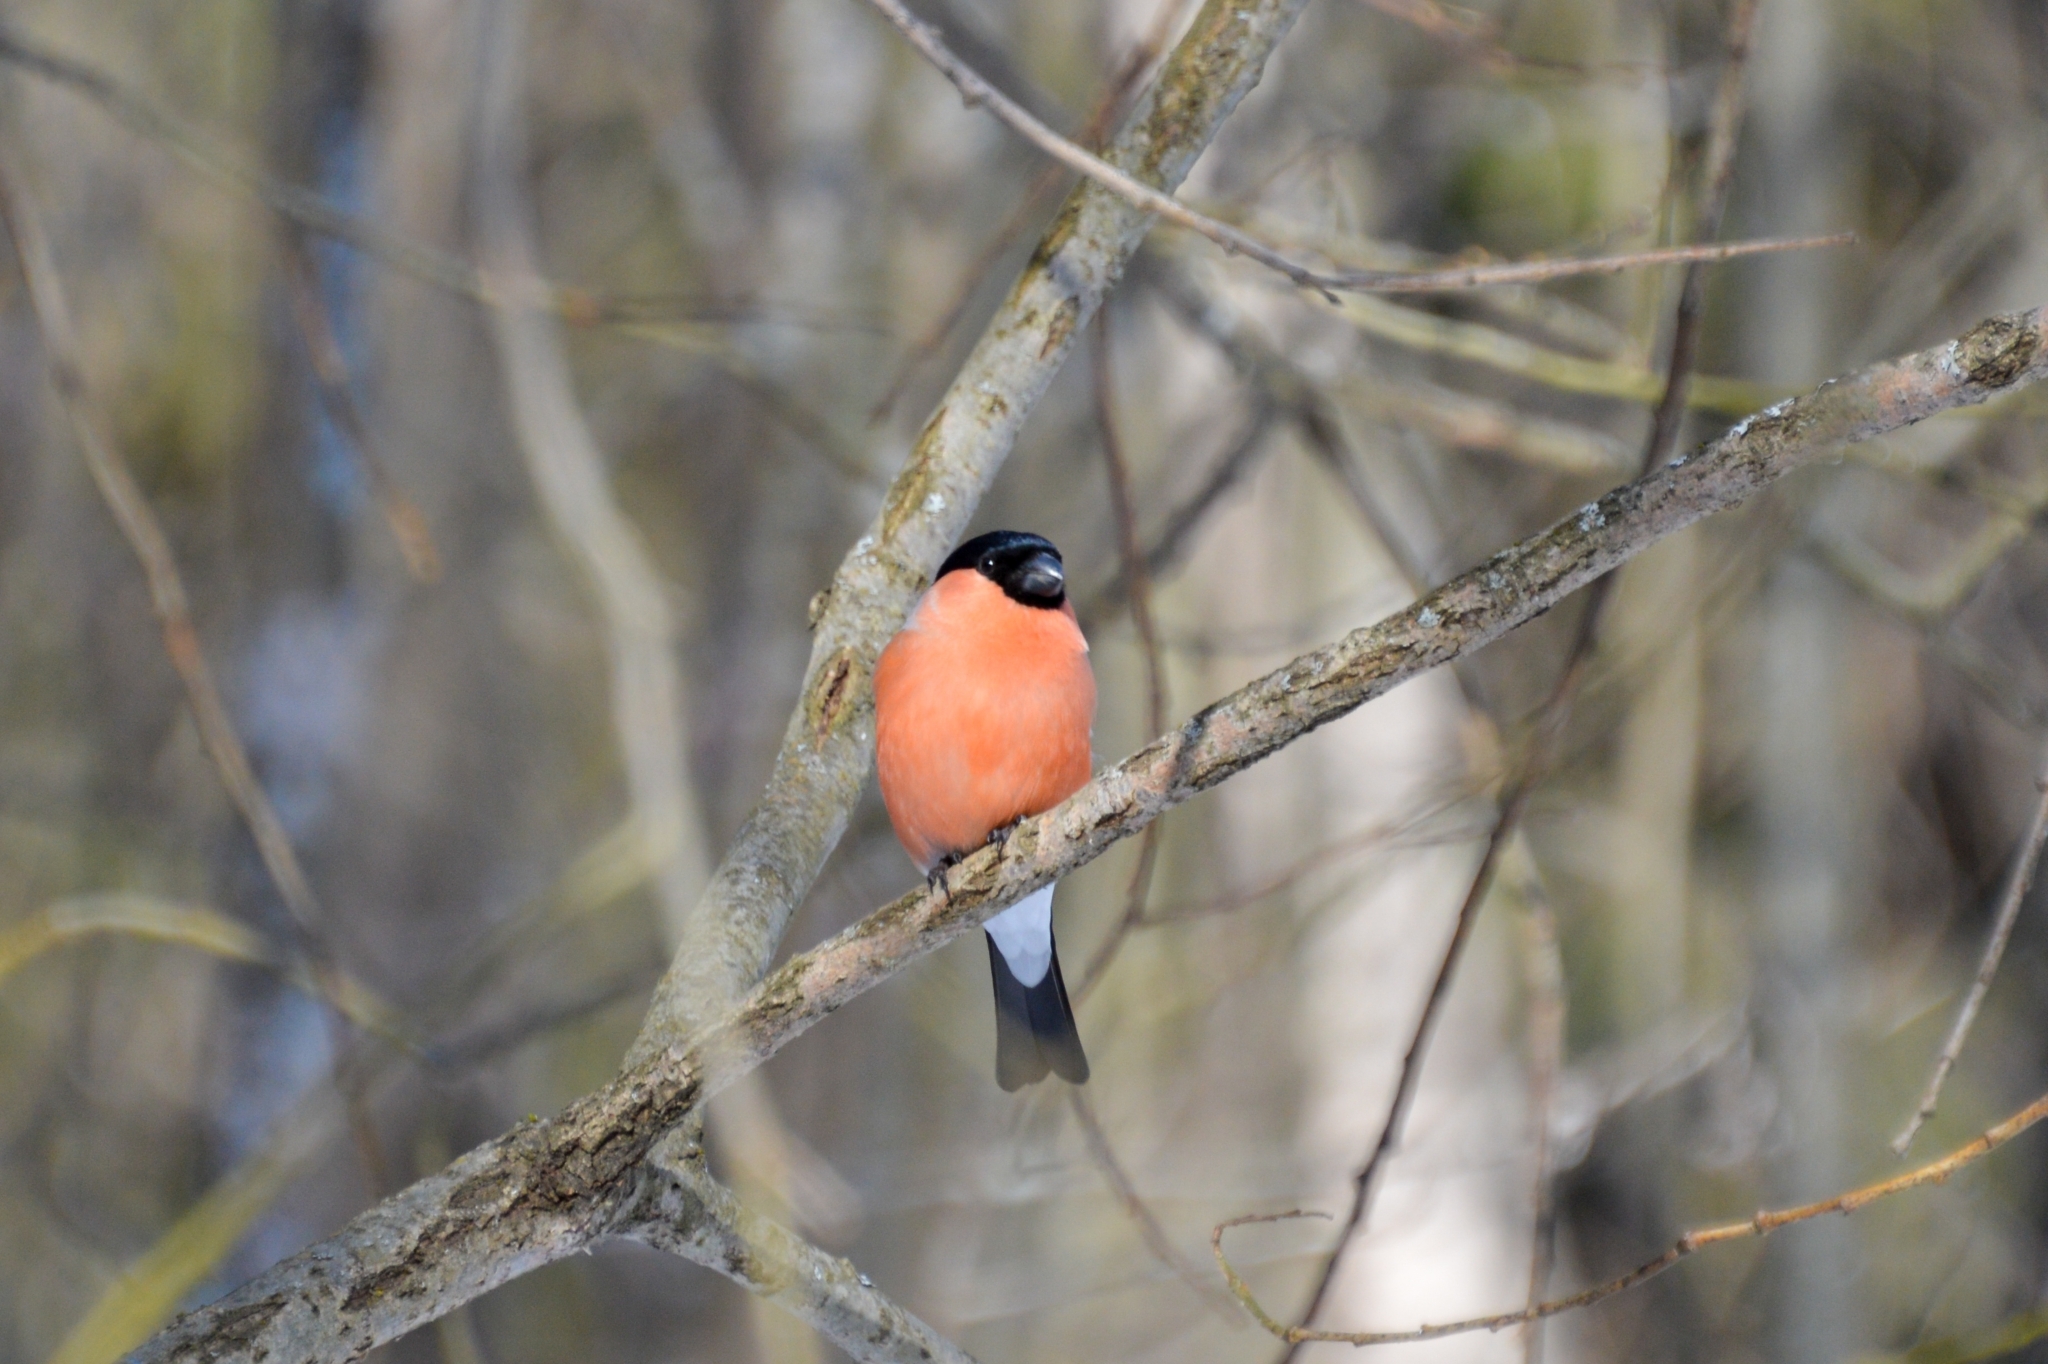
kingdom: Animalia
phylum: Chordata
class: Aves
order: Passeriformes
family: Fringillidae
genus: Pyrrhula
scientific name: Pyrrhula pyrrhula
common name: Eurasian bullfinch
